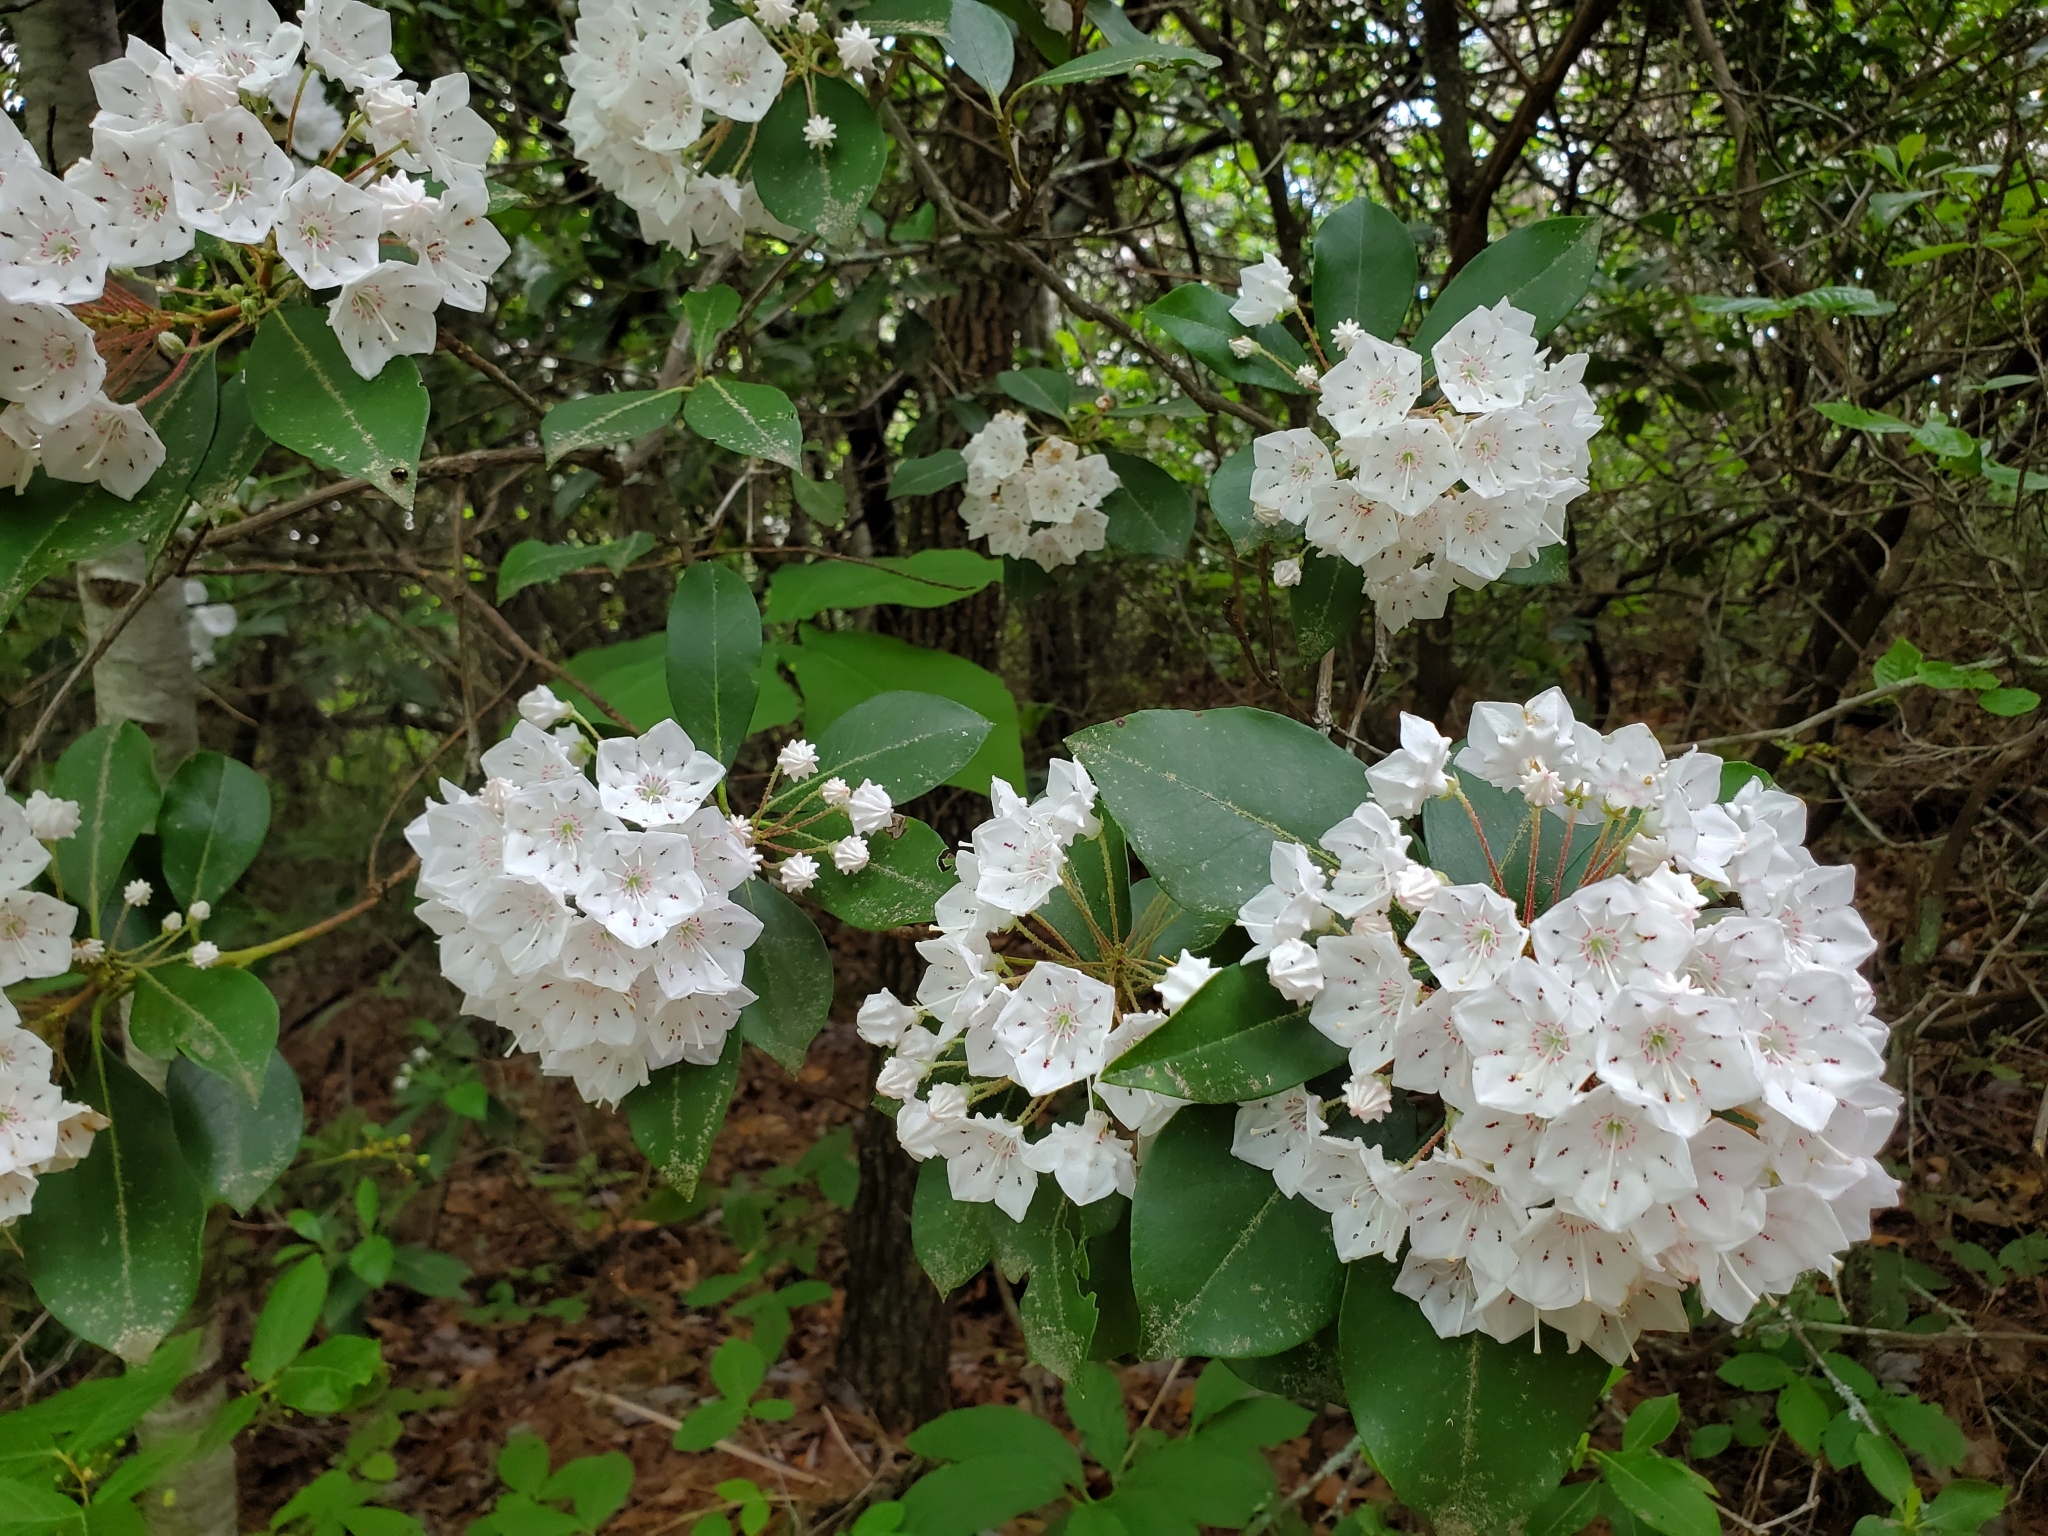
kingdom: Plantae
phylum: Tracheophyta
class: Magnoliopsida
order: Ericales
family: Ericaceae
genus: Kalmia
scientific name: Kalmia latifolia
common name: Mountain-laurel
